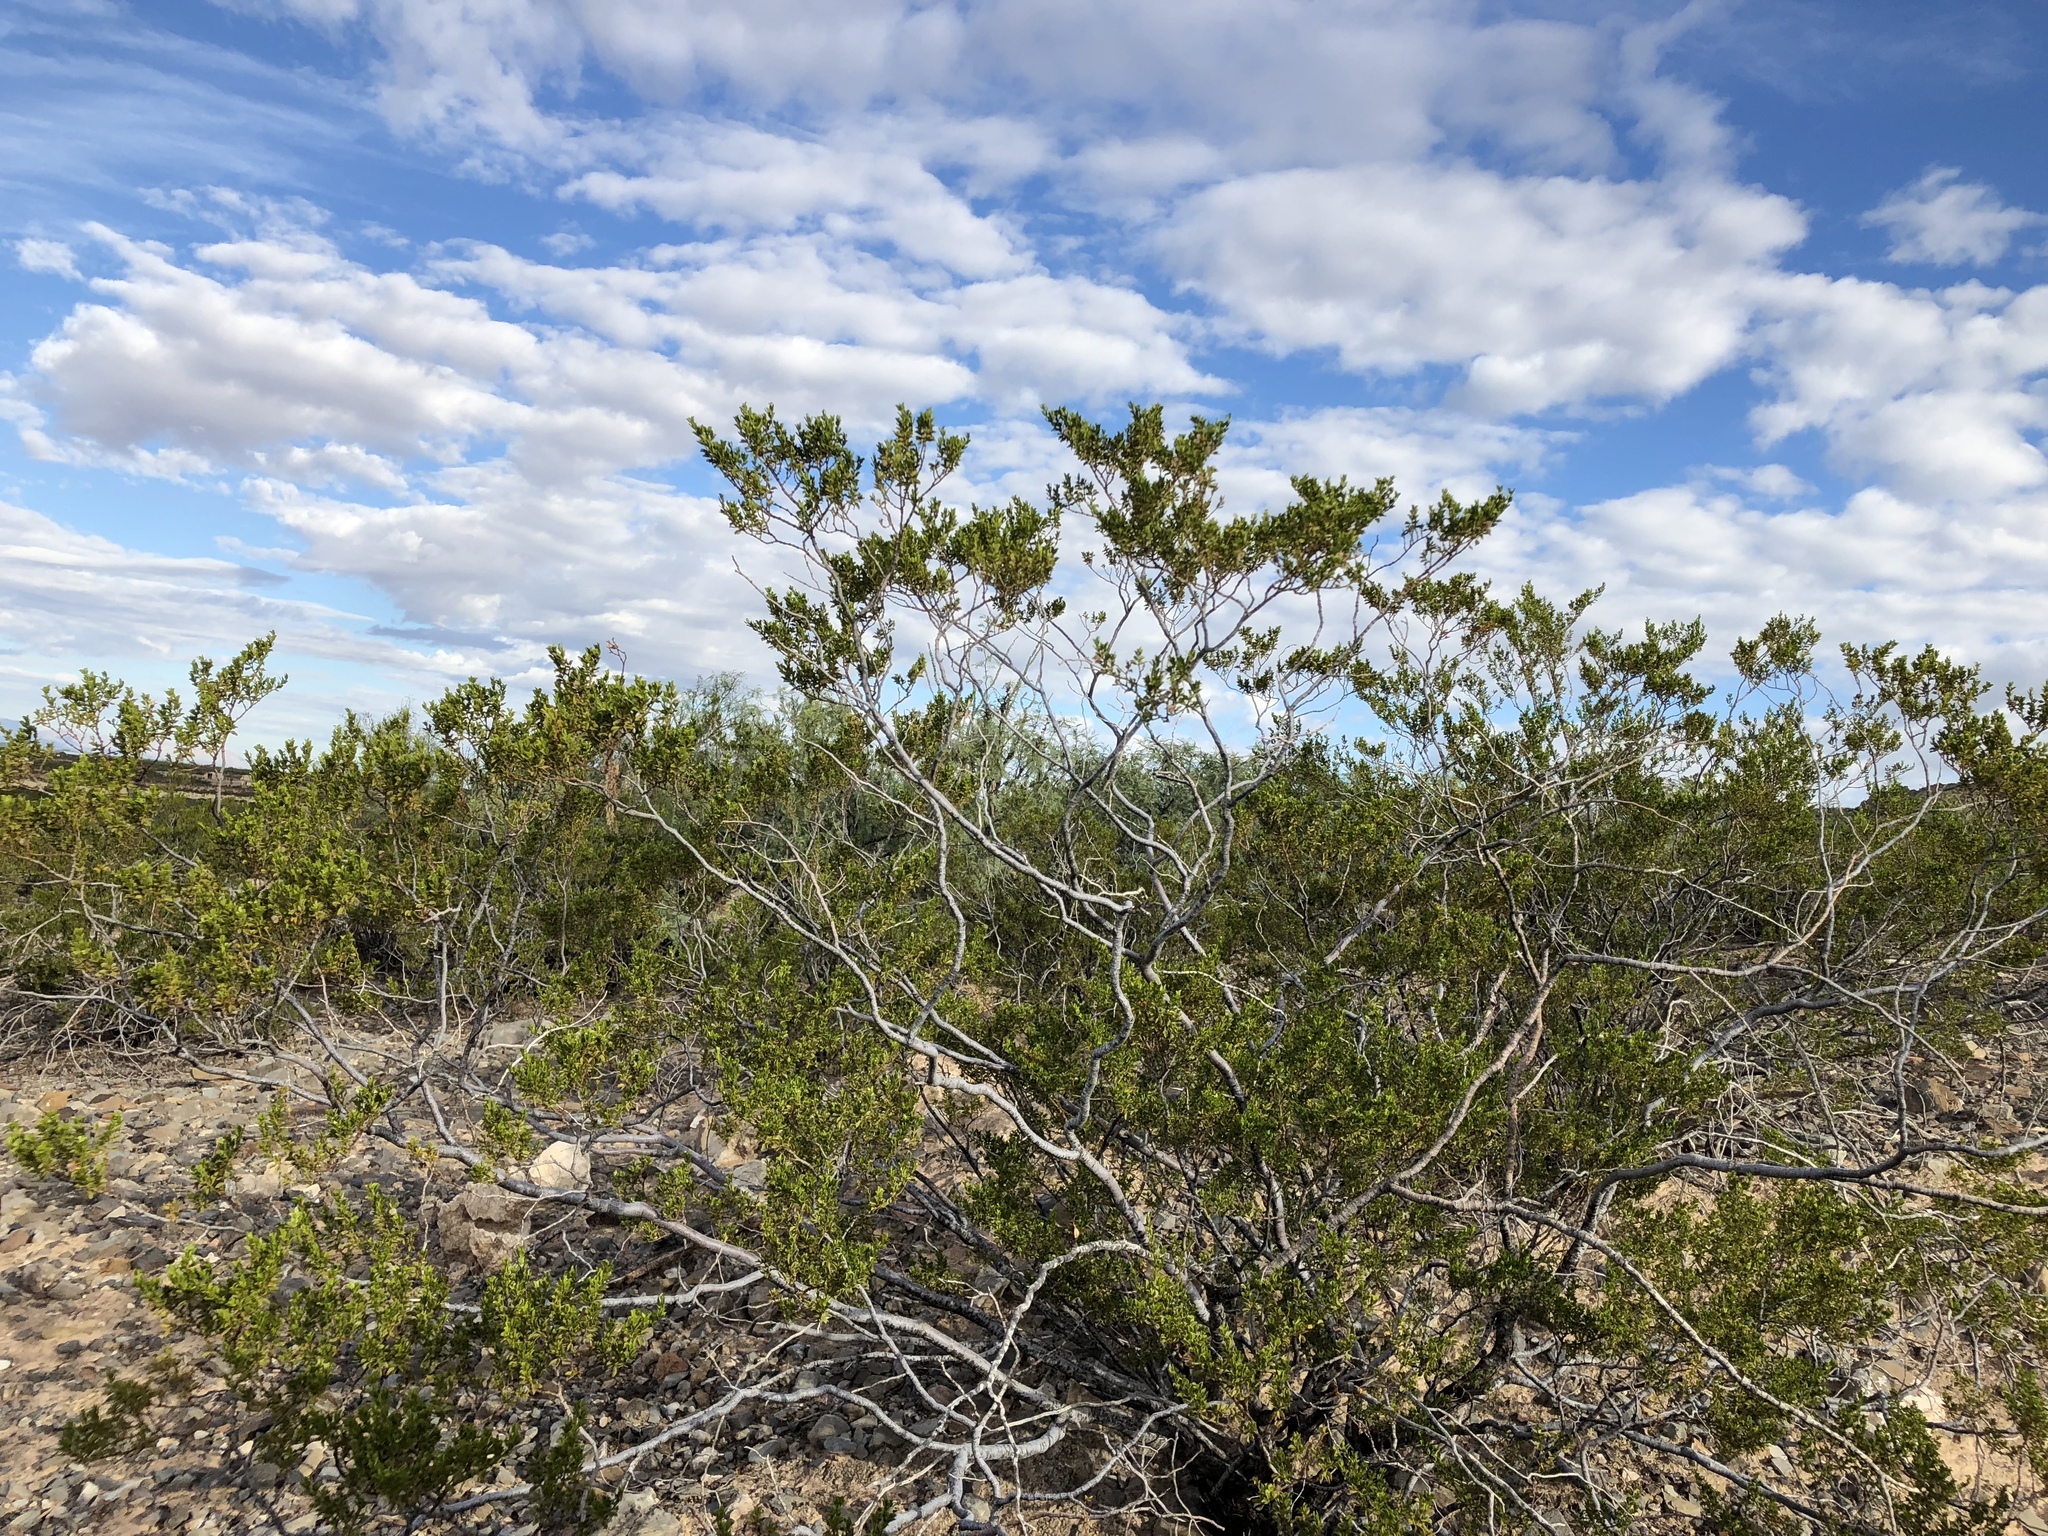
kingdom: Plantae
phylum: Tracheophyta
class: Magnoliopsida
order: Zygophyllales
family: Zygophyllaceae
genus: Larrea
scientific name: Larrea tridentata
